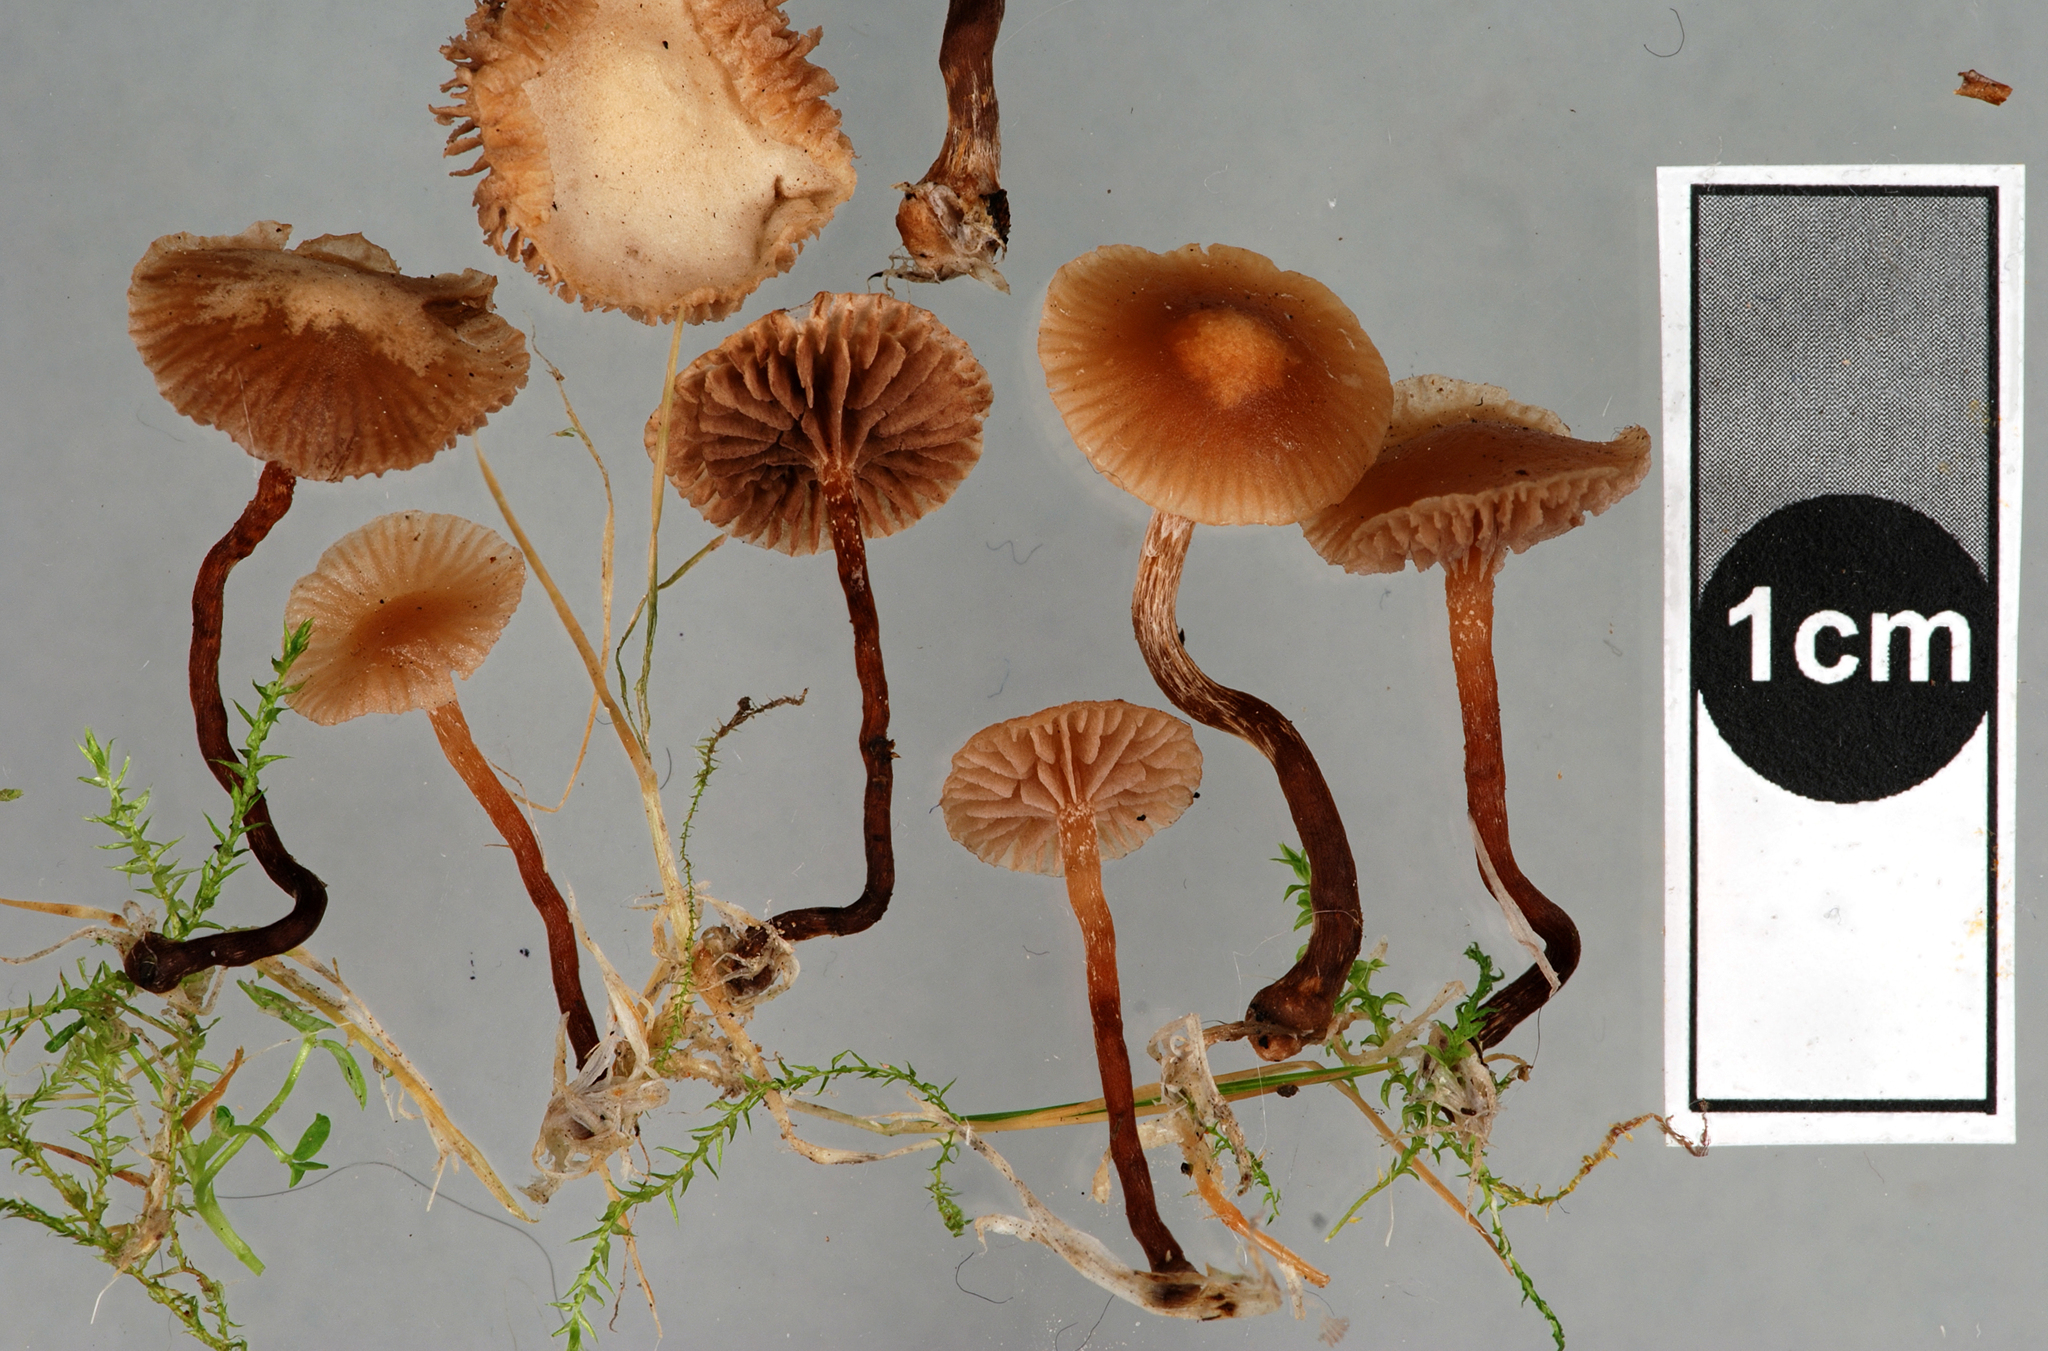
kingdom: Fungi
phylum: Basidiomycota
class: Agaricomycetes
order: Agaricales
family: Hymenogastraceae
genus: Psilocybe
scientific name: Psilocybe subviscida
